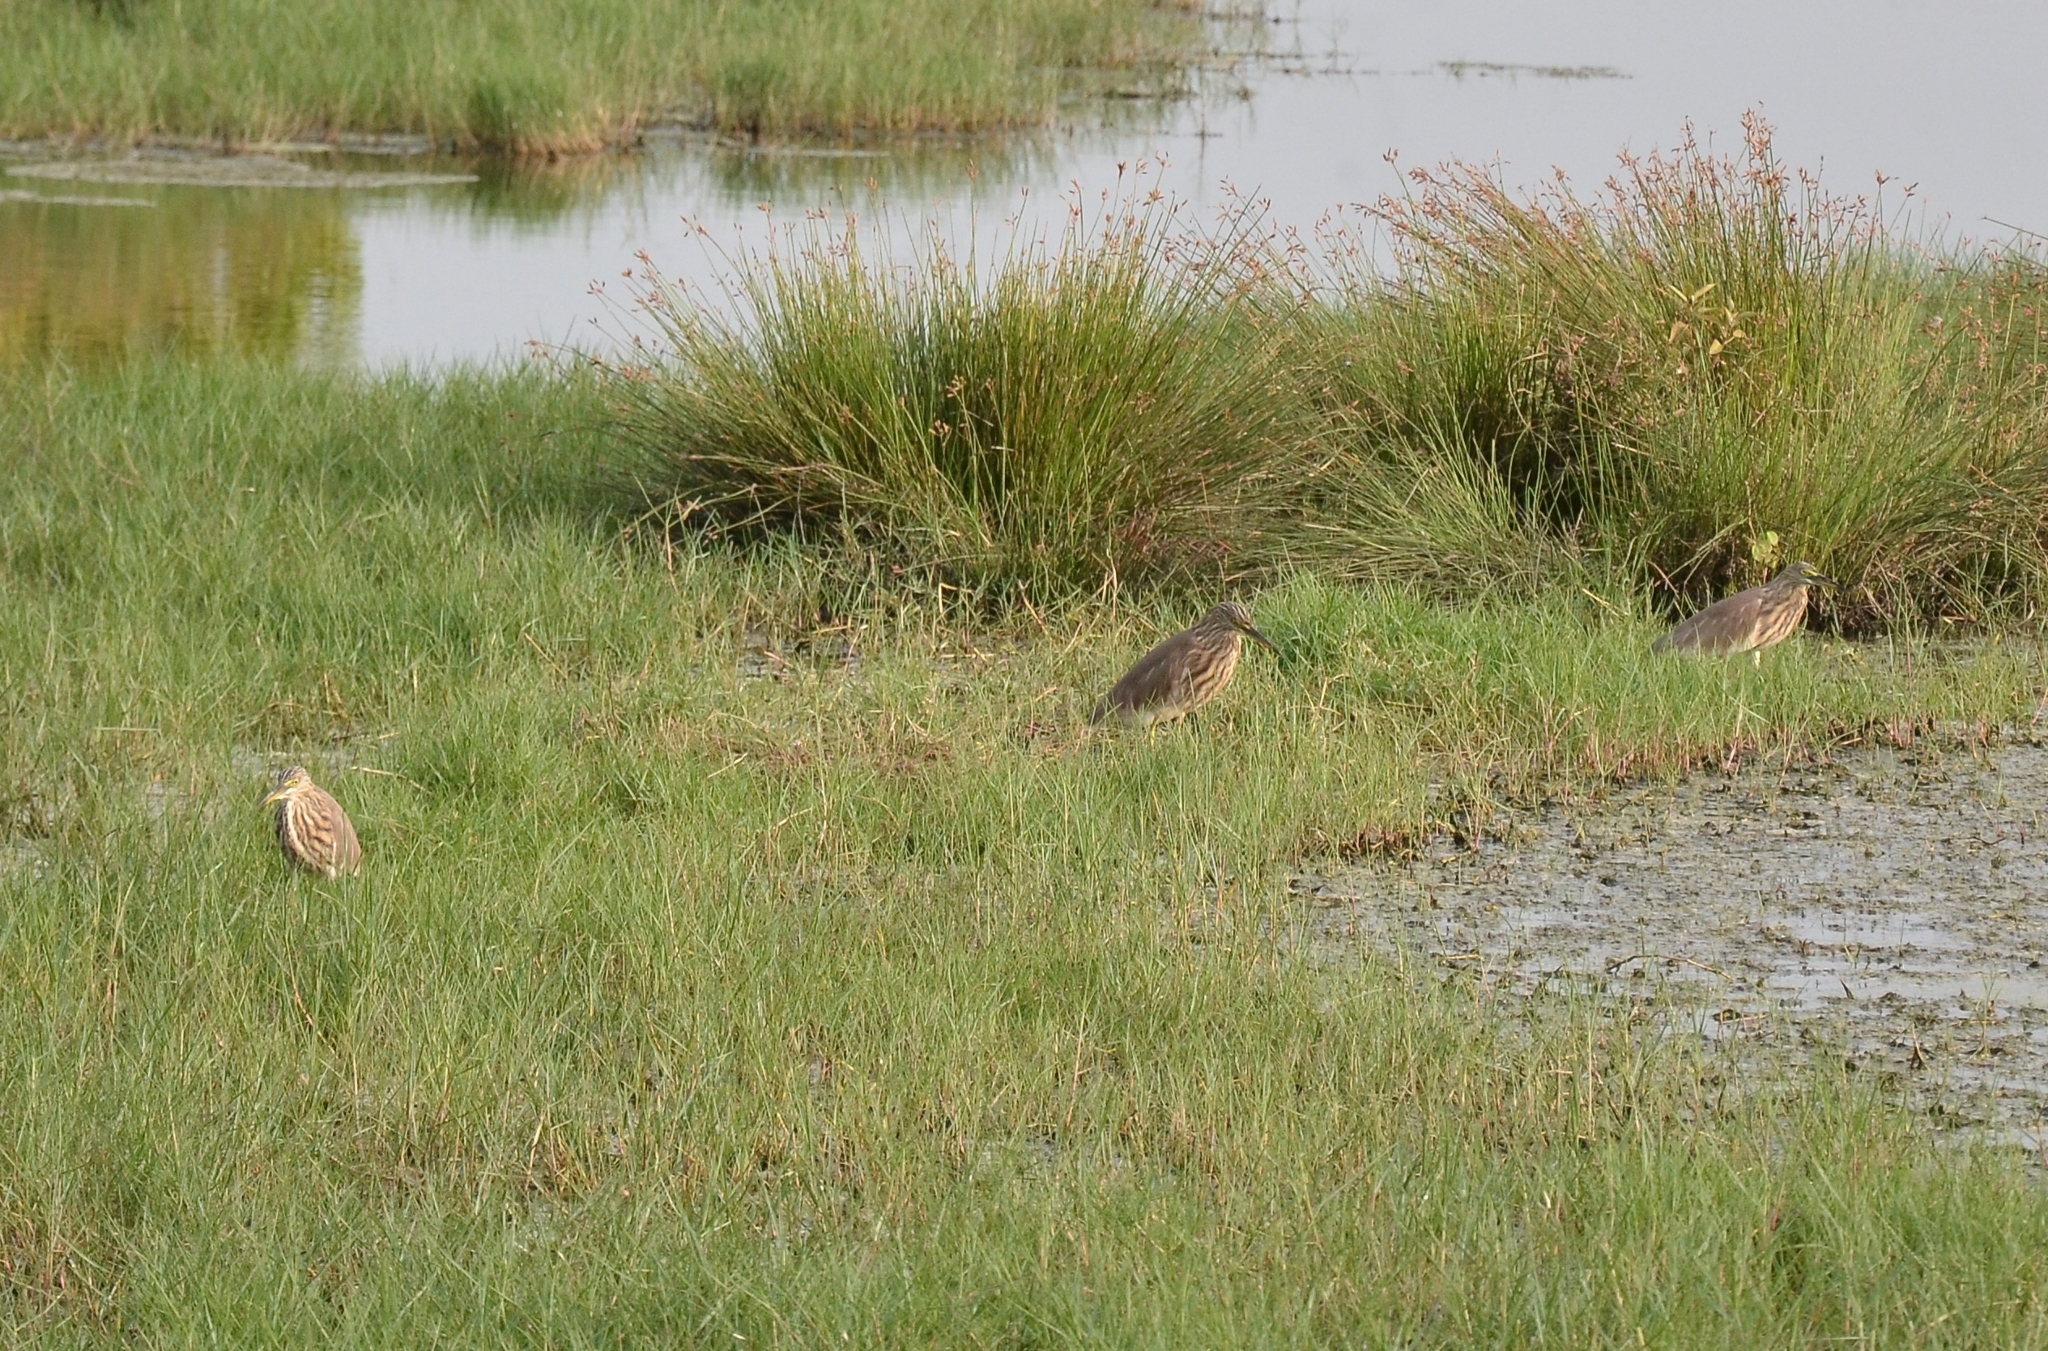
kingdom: Animalia
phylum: Chordata
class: Aves
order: Pelecaniformes
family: Ardeidae
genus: Ardeola
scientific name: Ardeola grayii
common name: Indian pond heron
